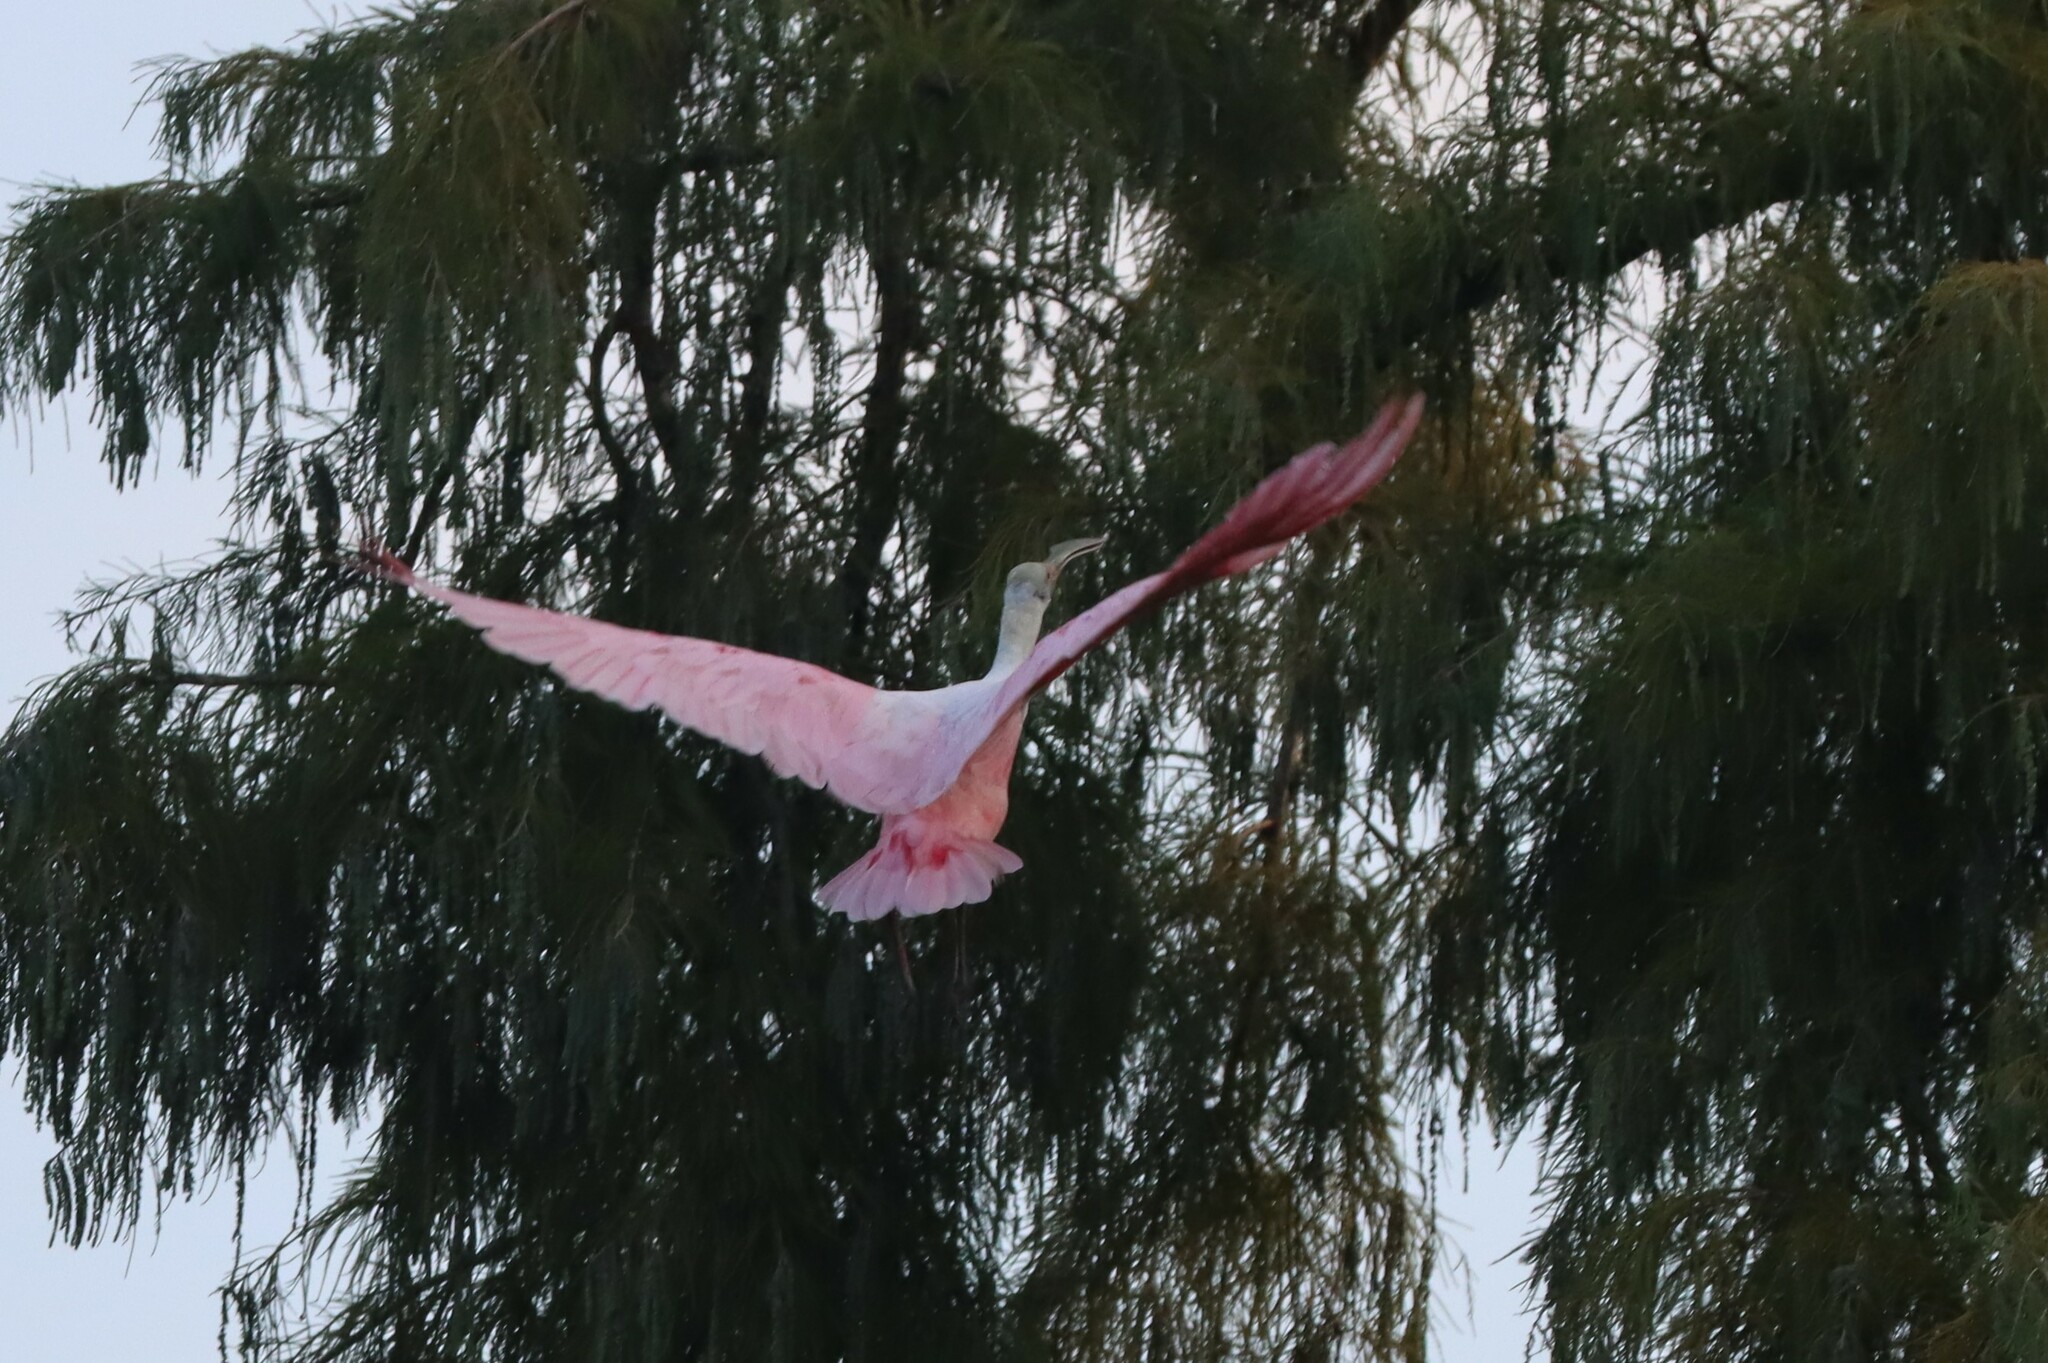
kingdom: Animalia
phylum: Chordata
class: Aves
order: Pelecaniformes
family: Threskiornithidae
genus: Platalea
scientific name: Platalea ajaja
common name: Roseate spoonbill
